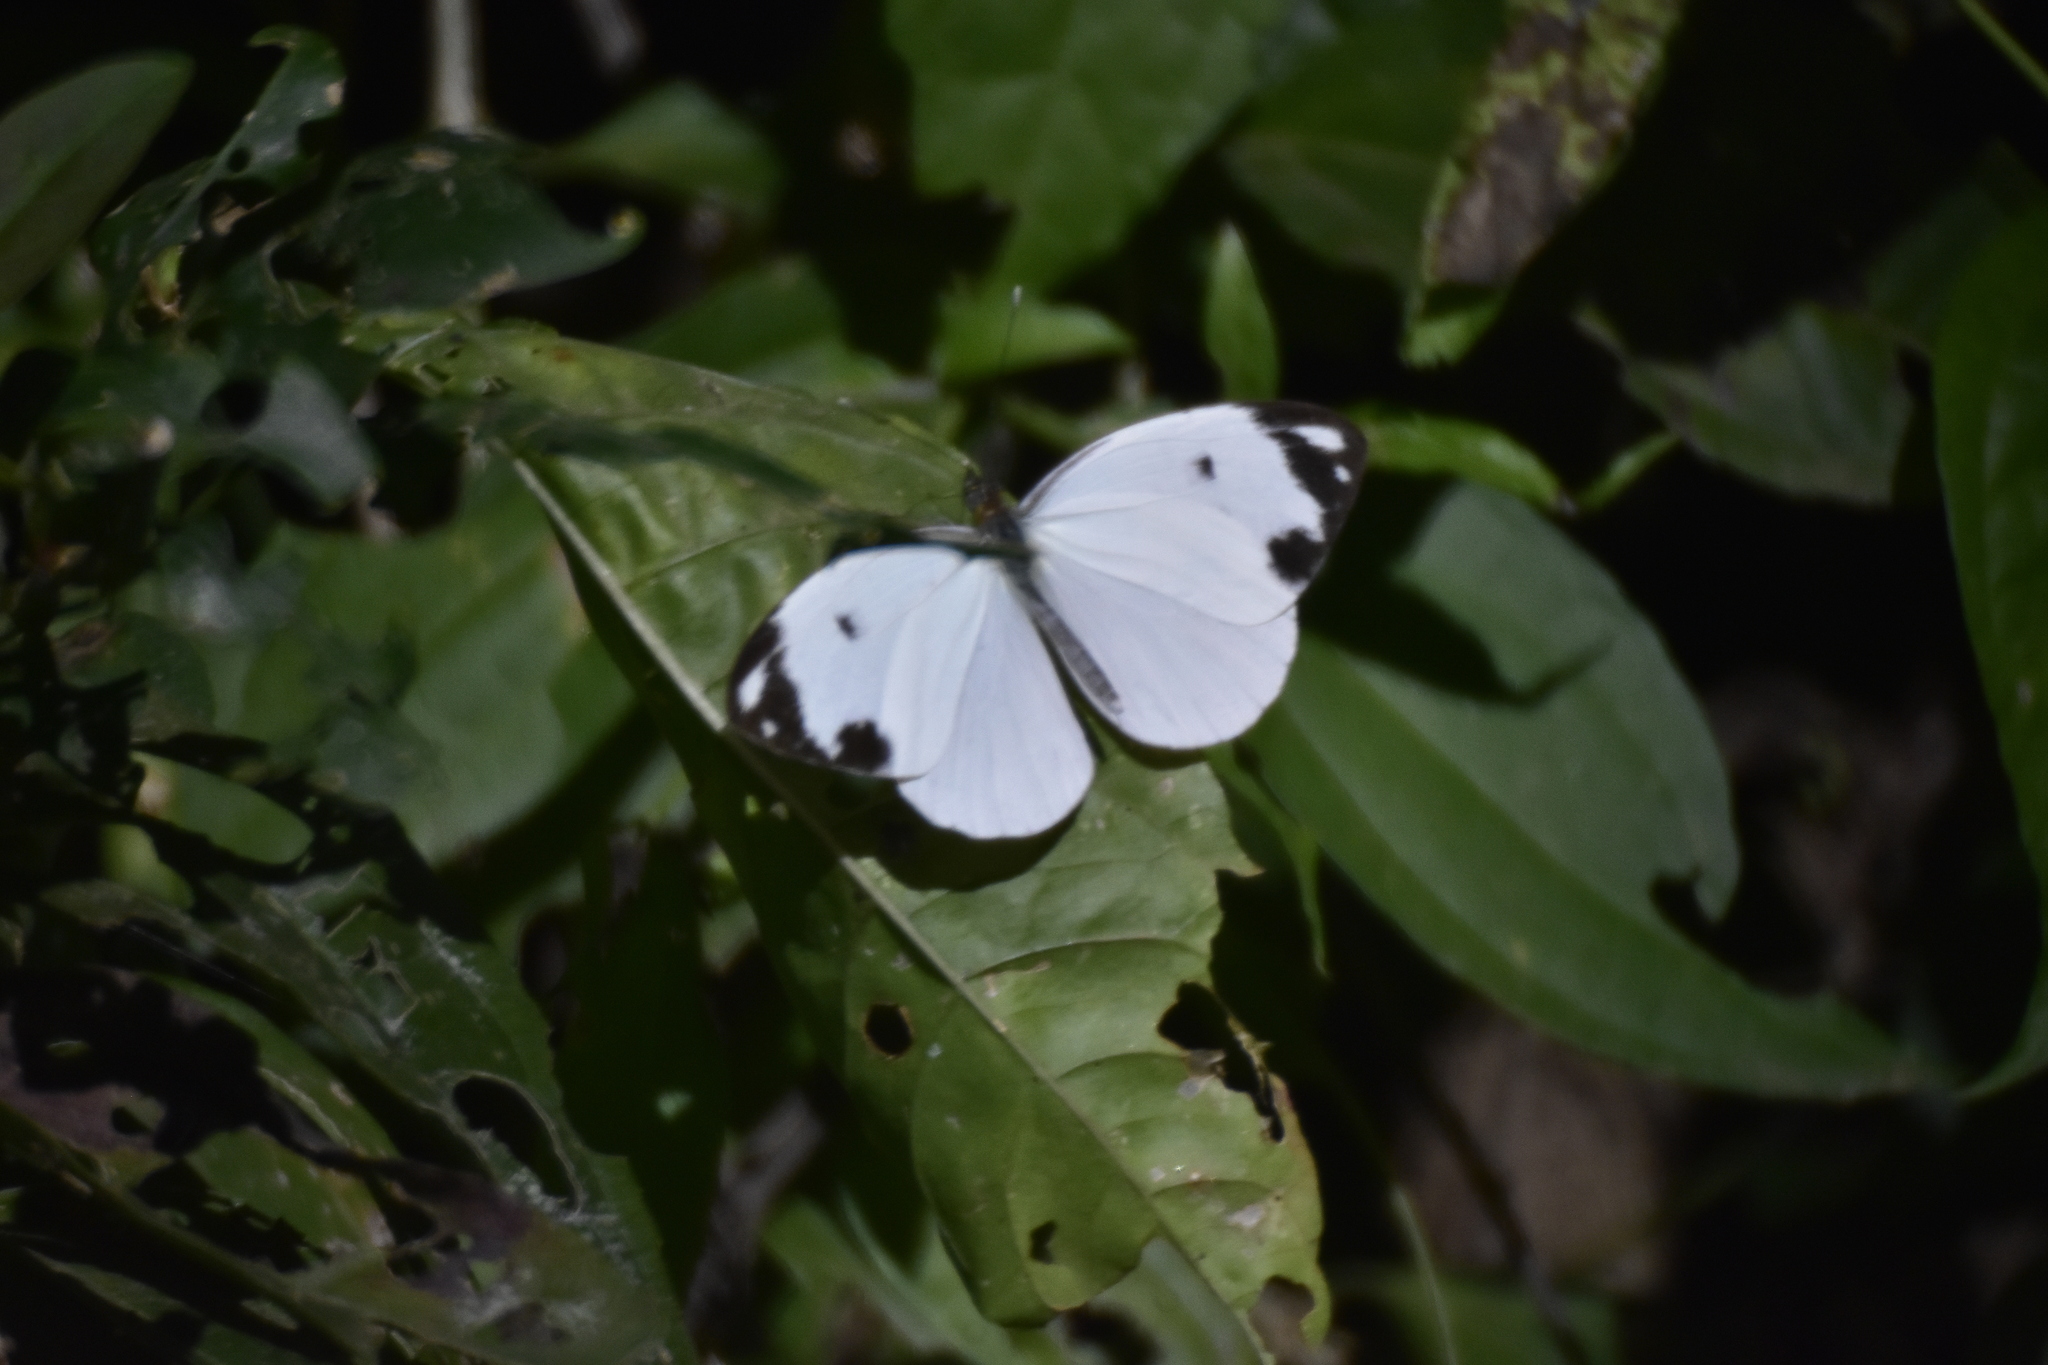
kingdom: Animalia
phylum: Arthropoda
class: Insecta
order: Lepidoptera
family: Pieridae
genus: Pieriballia
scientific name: Pieriballia viardi
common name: Painted white
